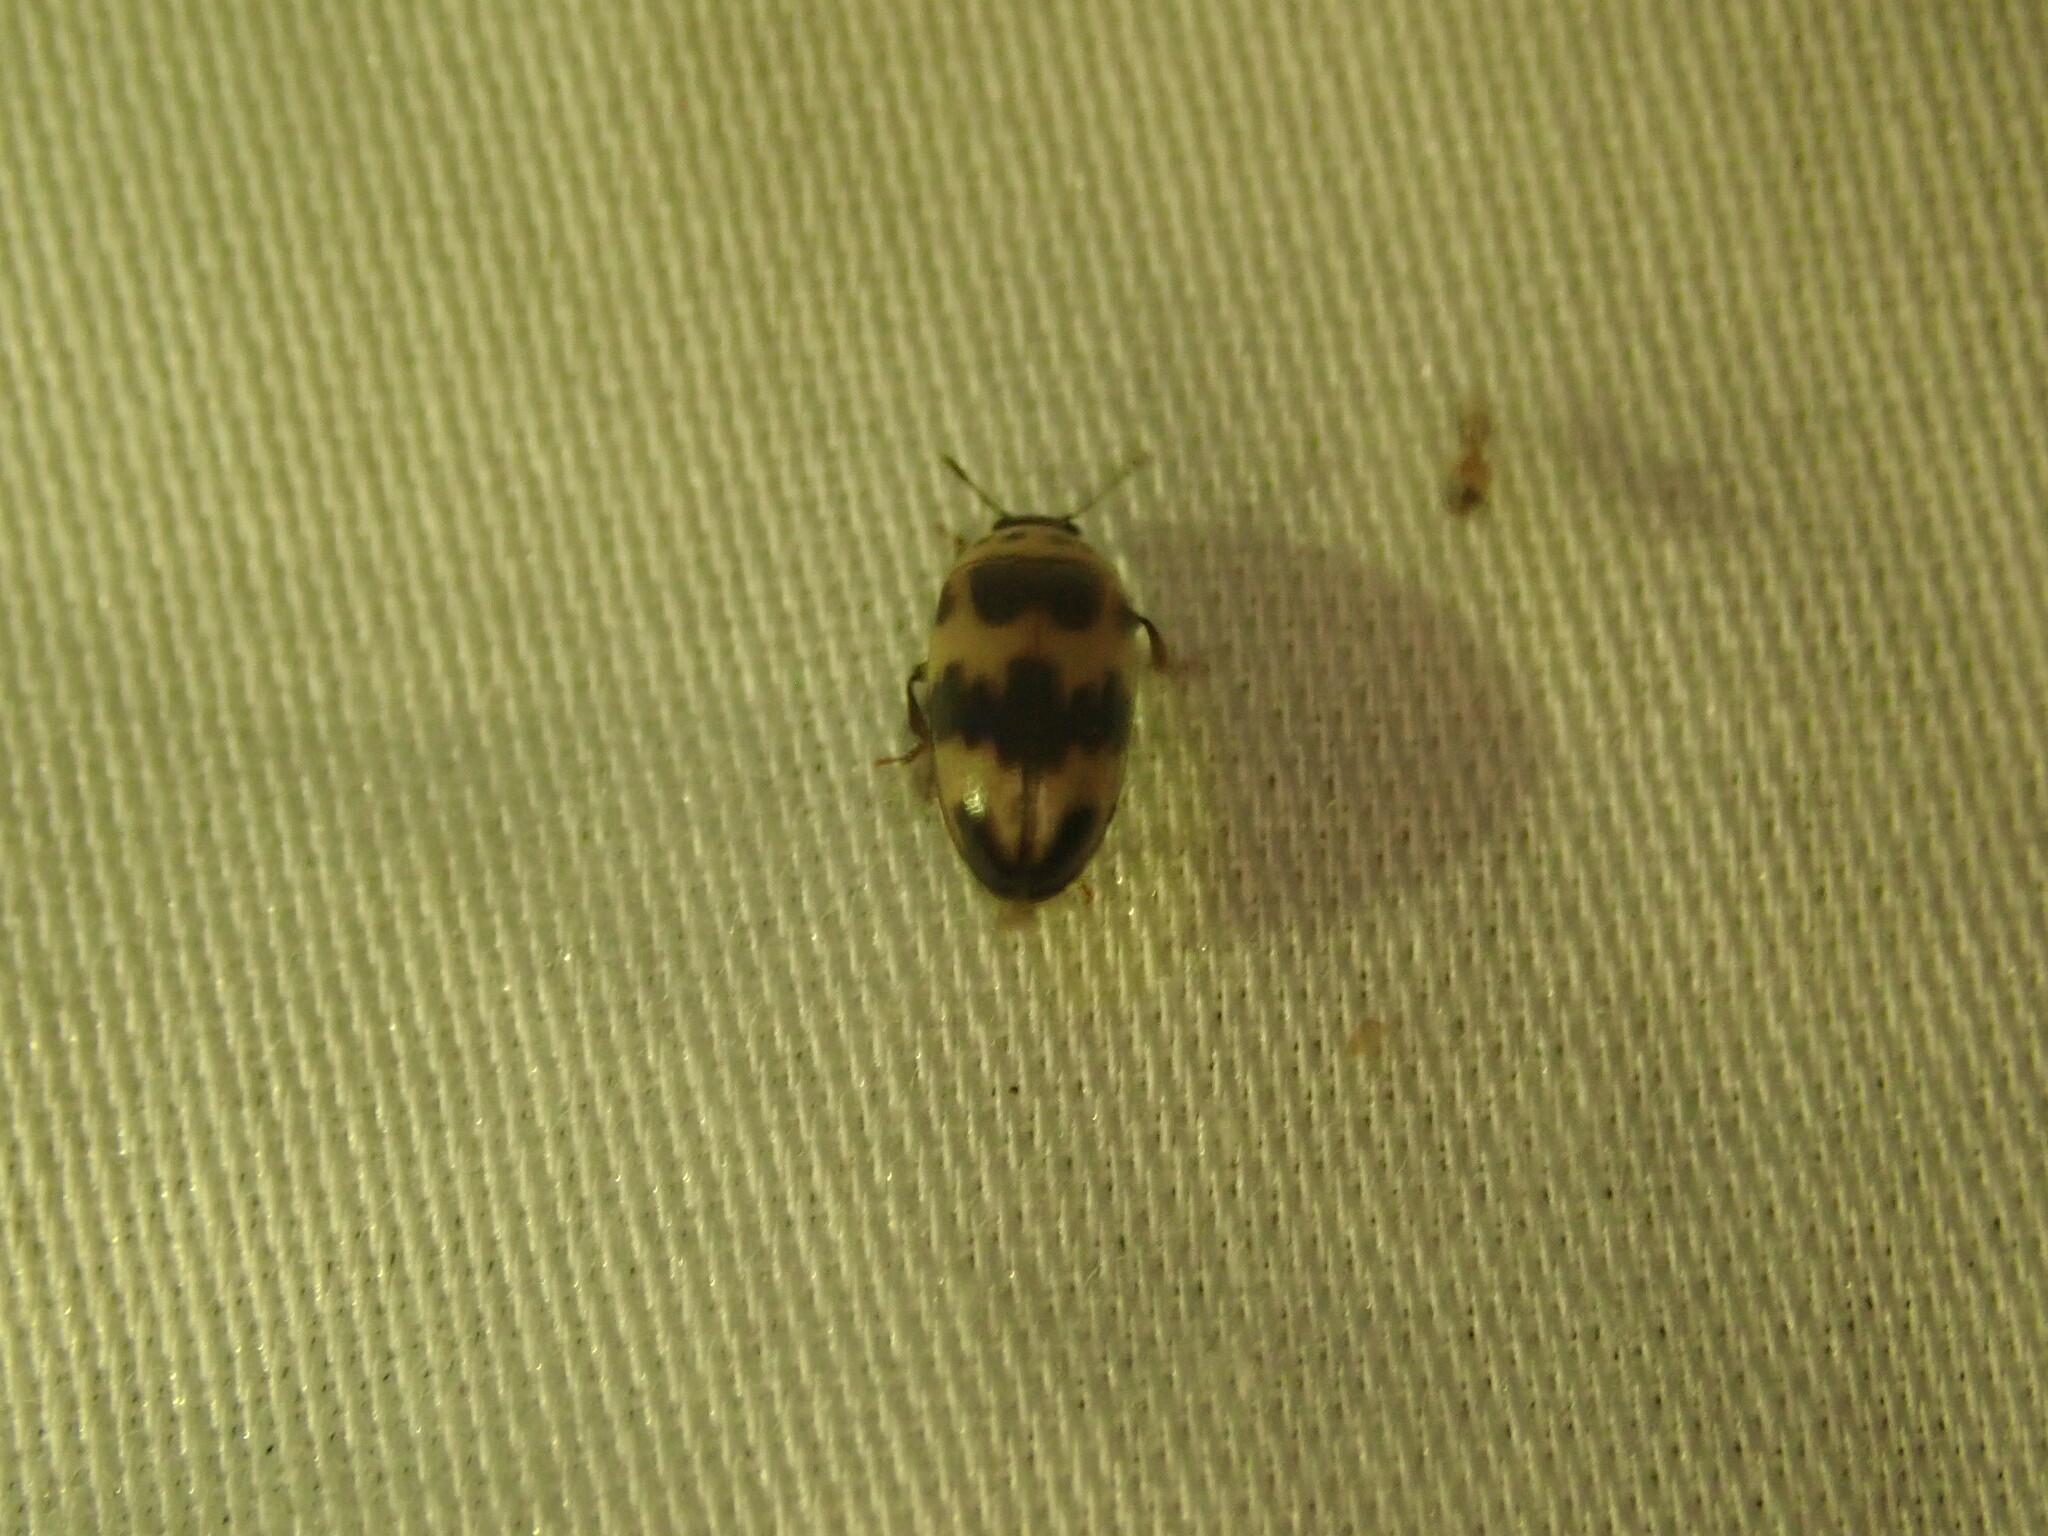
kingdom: Animalia
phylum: Arthropoda
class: Insecta
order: Coleoptera
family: Erotylidae
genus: Ischyrus
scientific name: Ischyrus quadripunctatus
